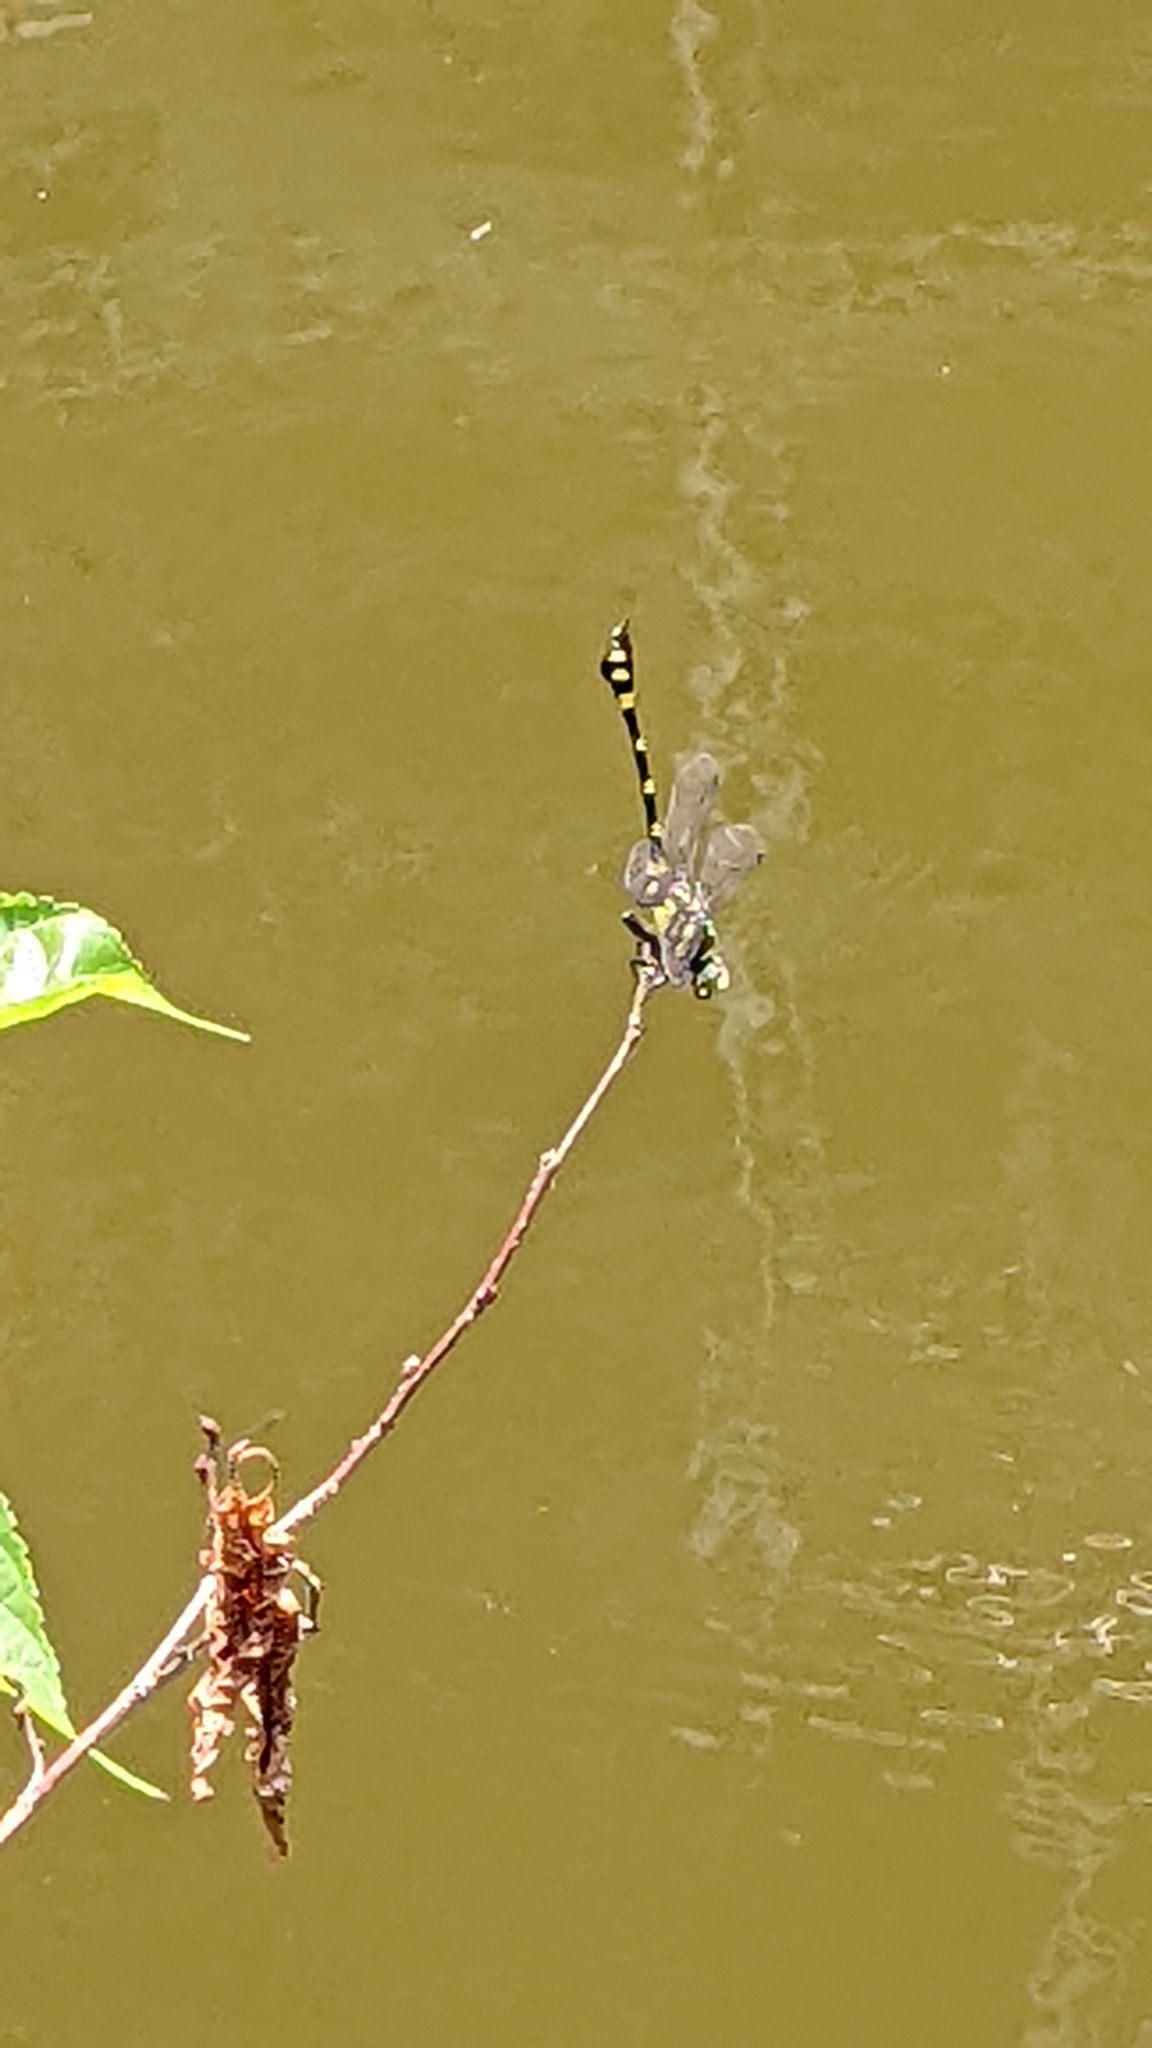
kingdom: Animalia
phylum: Arthropoda
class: Insecta
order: Odonata
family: Gomphidae
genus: Ictinogomphus
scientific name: Ictinogomphus rapax
